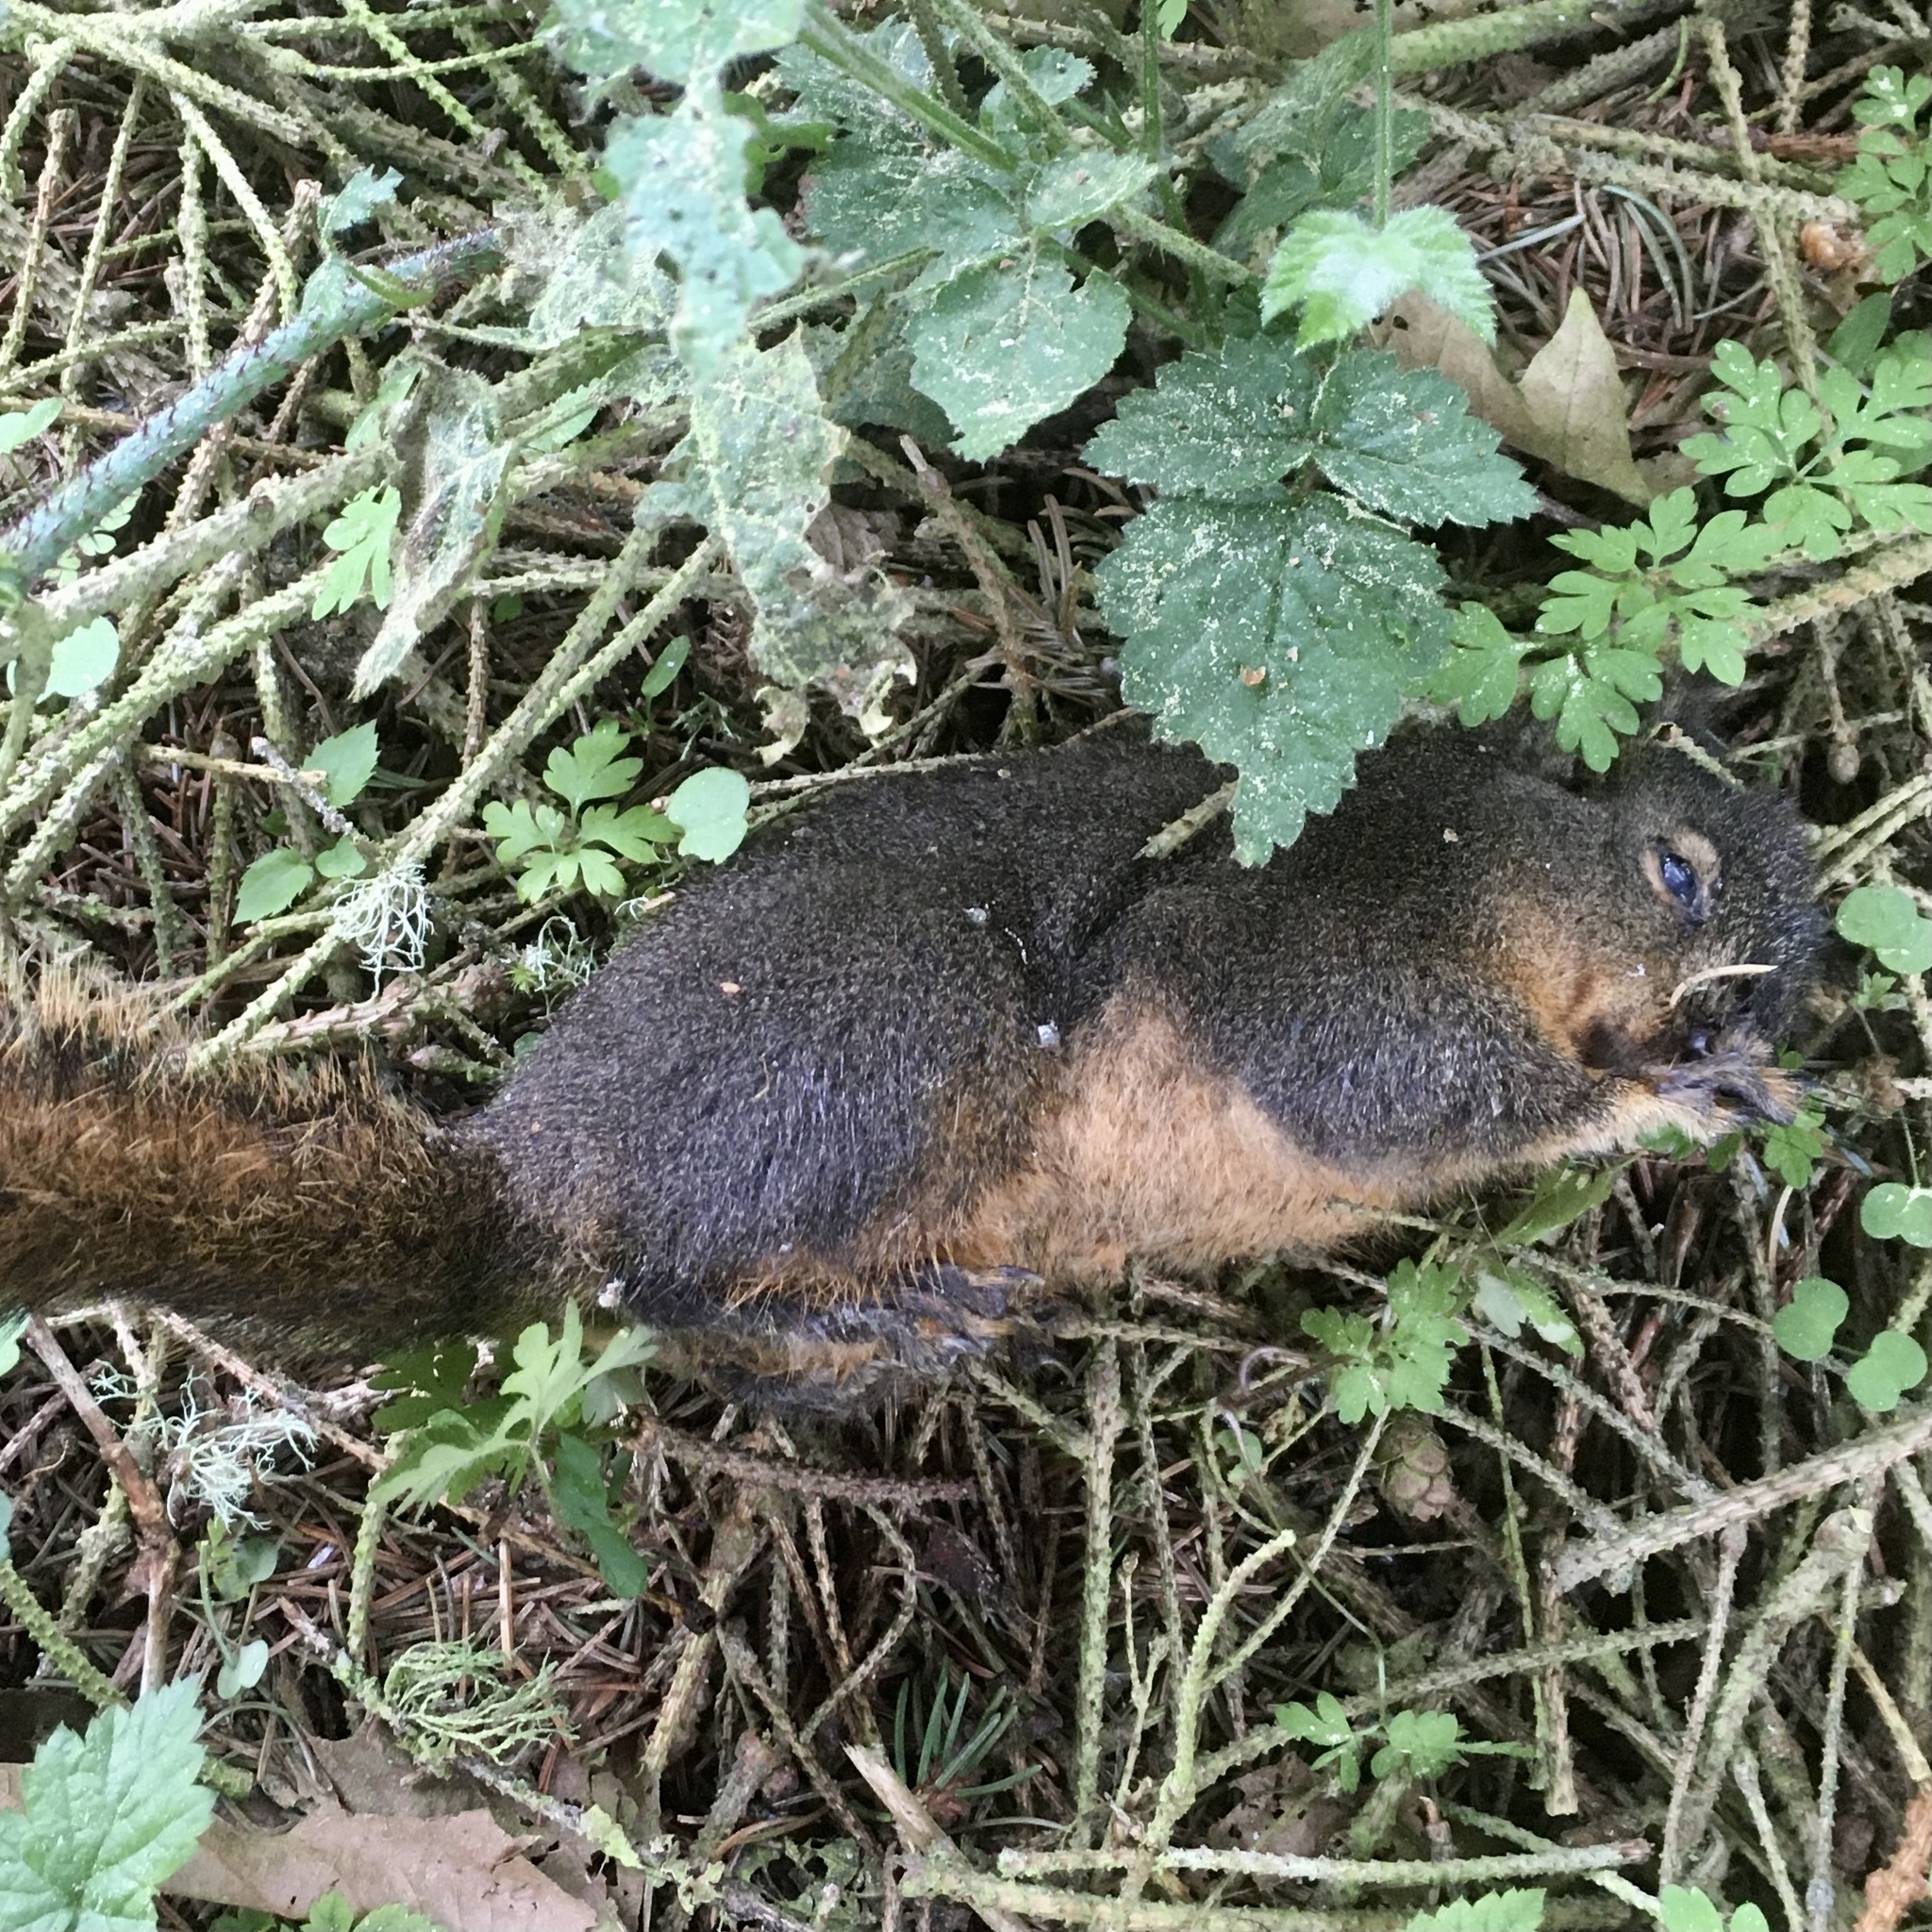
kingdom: Animalia
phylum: Chordata
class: Mammalia
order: Rodentia
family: Sciuridae
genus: Tamiasciurus
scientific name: Tamiasciurus douglasii
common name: Douglas's squirrel
